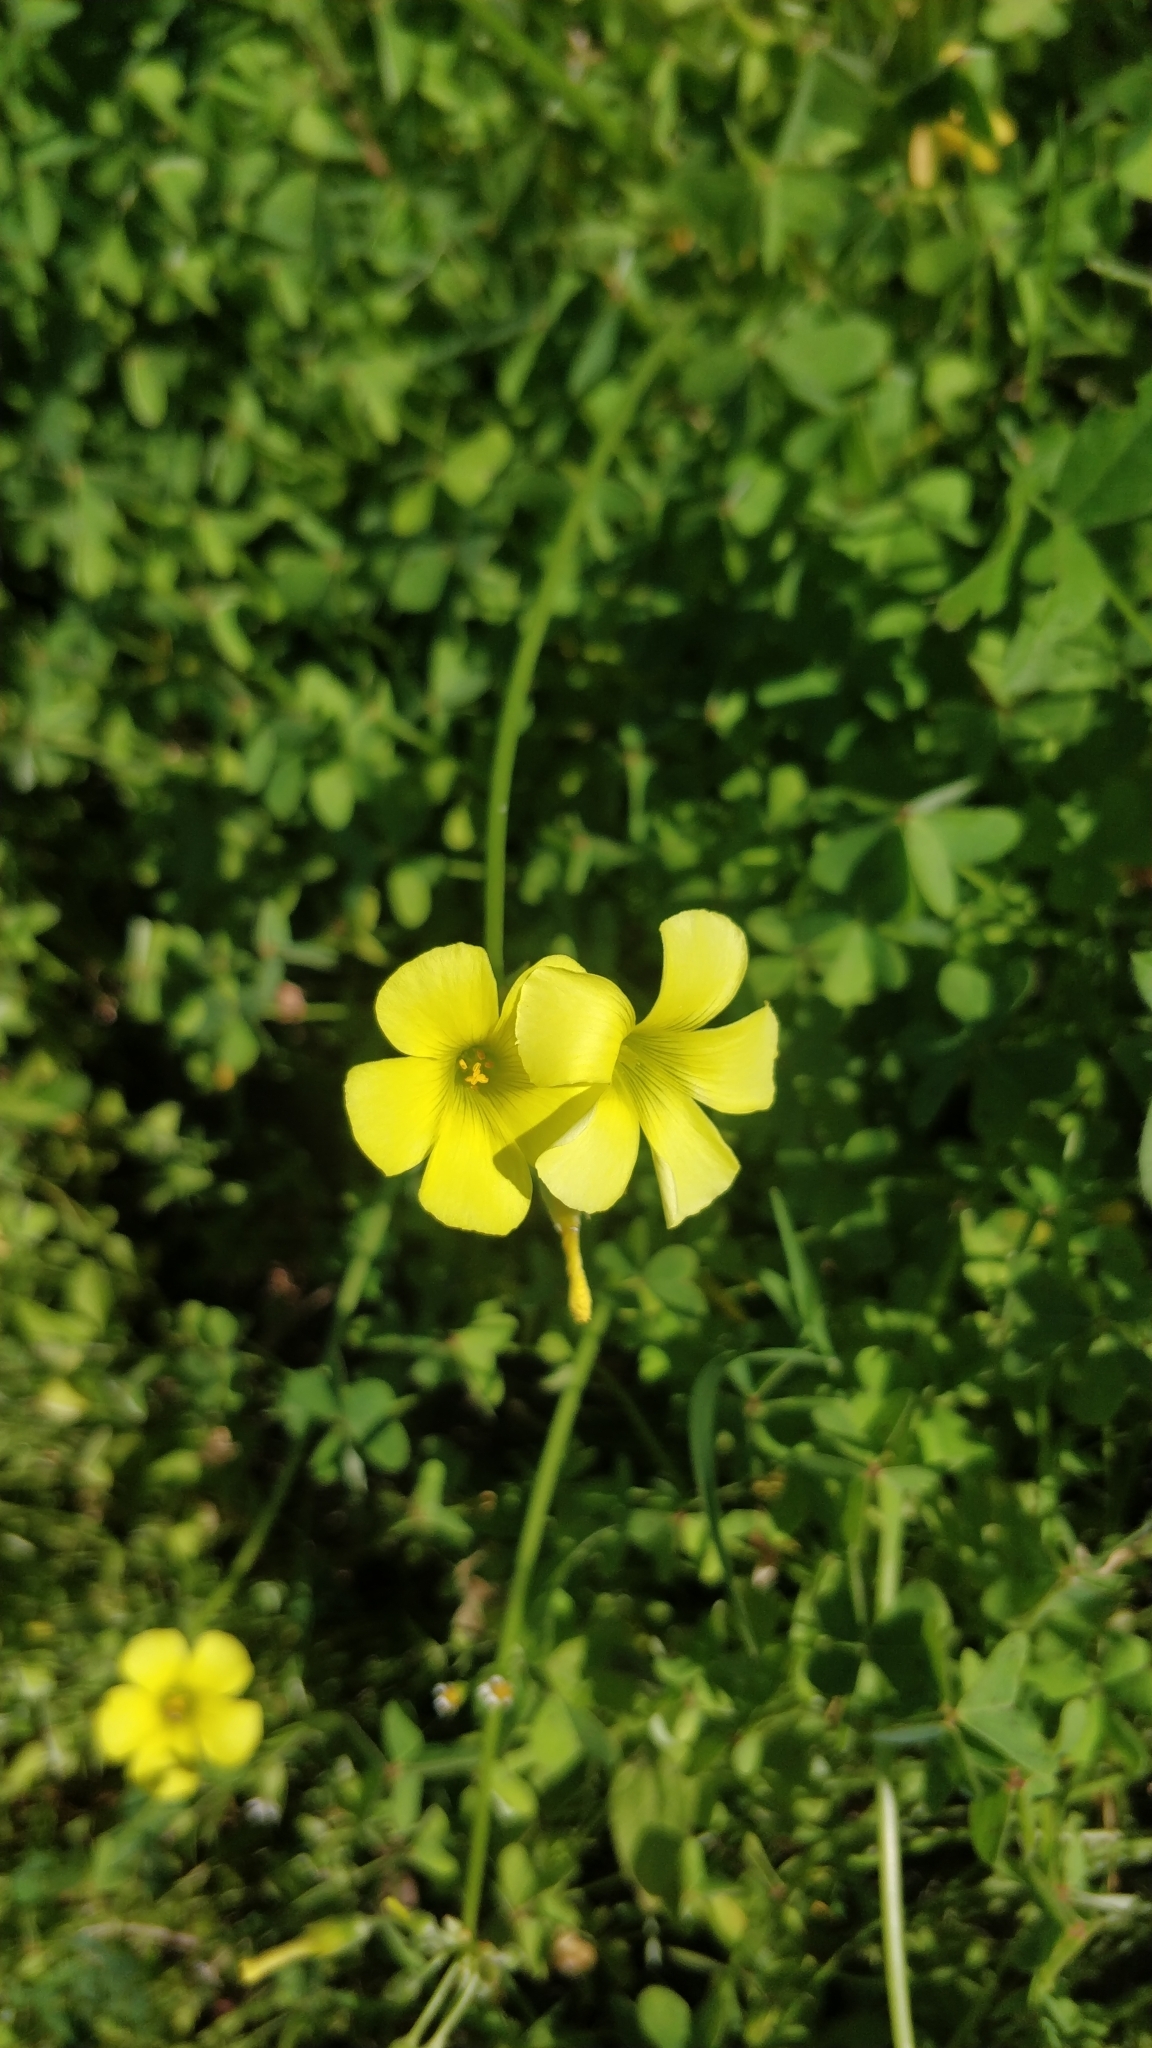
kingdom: Plantae
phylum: Tracheophyta
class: Magnoliopsida
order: Oxalidales
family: Oxalidaceae
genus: Oxalis
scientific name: Oxalis pes-caprae
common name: Bermuda-buttercup
